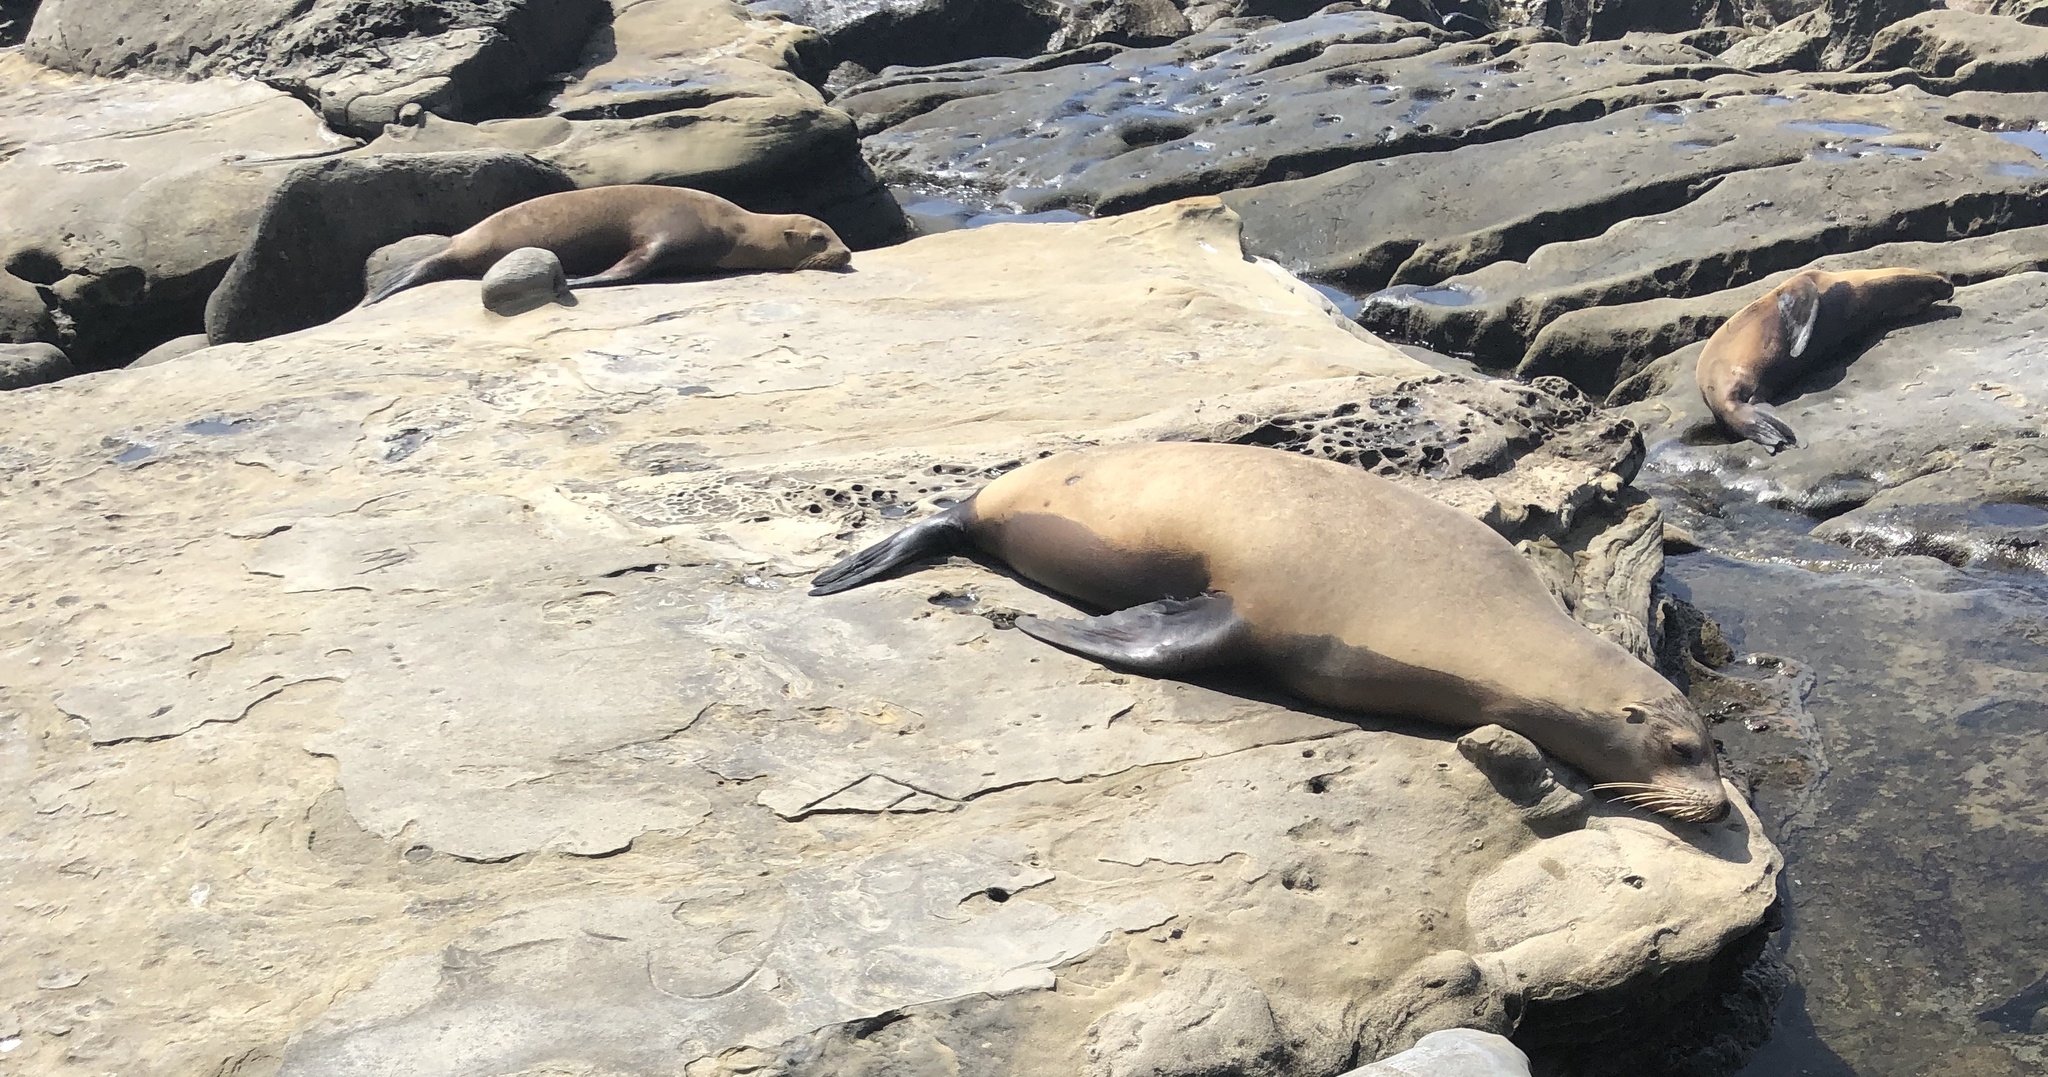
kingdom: Animalia
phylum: Chordata
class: Mammalia
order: Carnivora
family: Otariidae
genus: Zalophus
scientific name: Zalophus californianus
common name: California sea lion
